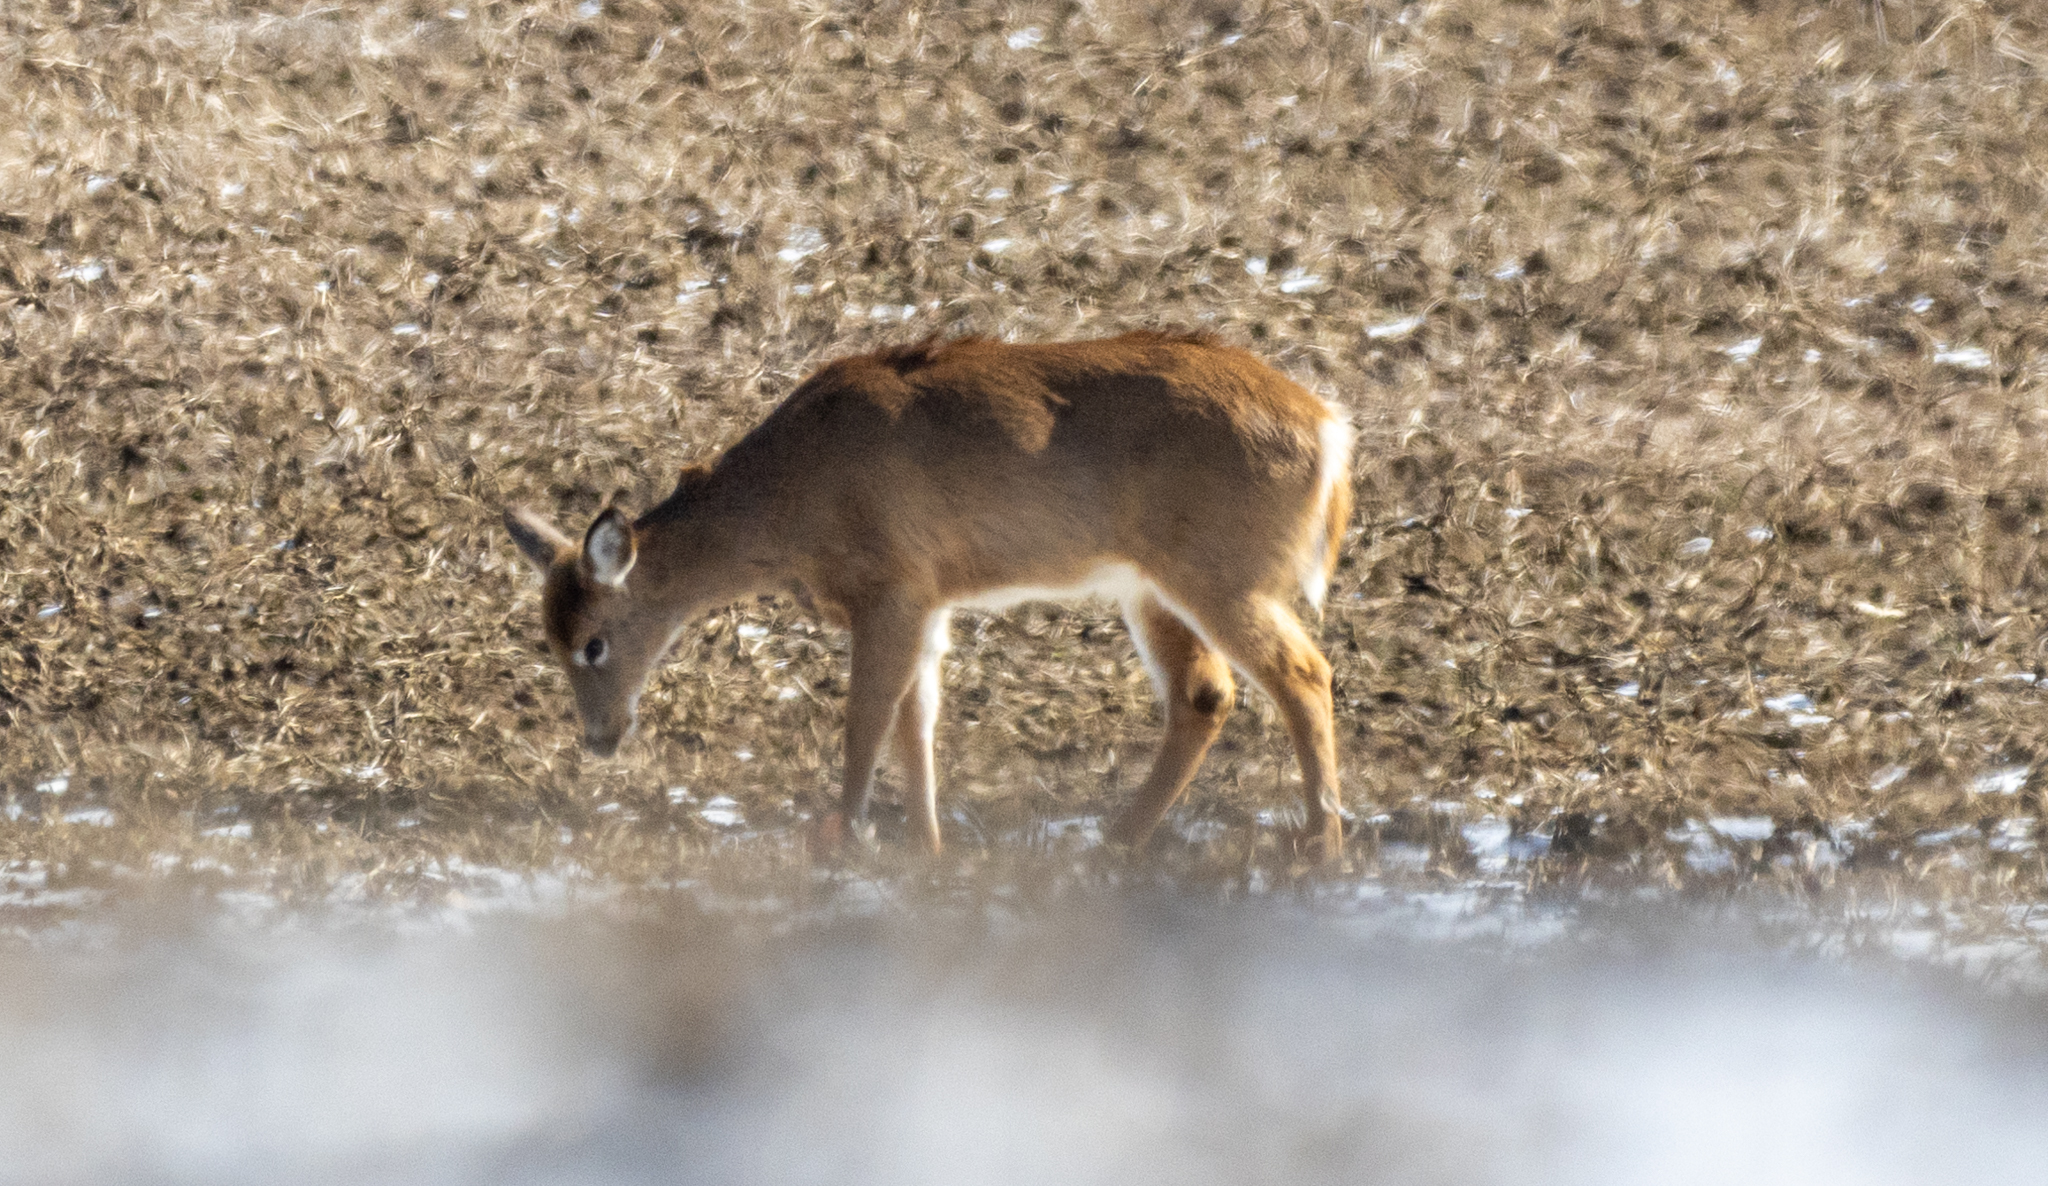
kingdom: Animalia
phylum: Chordata
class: Mammalia
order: Artiodactyla
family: Cervidae
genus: Odocoileus
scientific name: Odocoileus virginianus
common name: White-tailed deer
